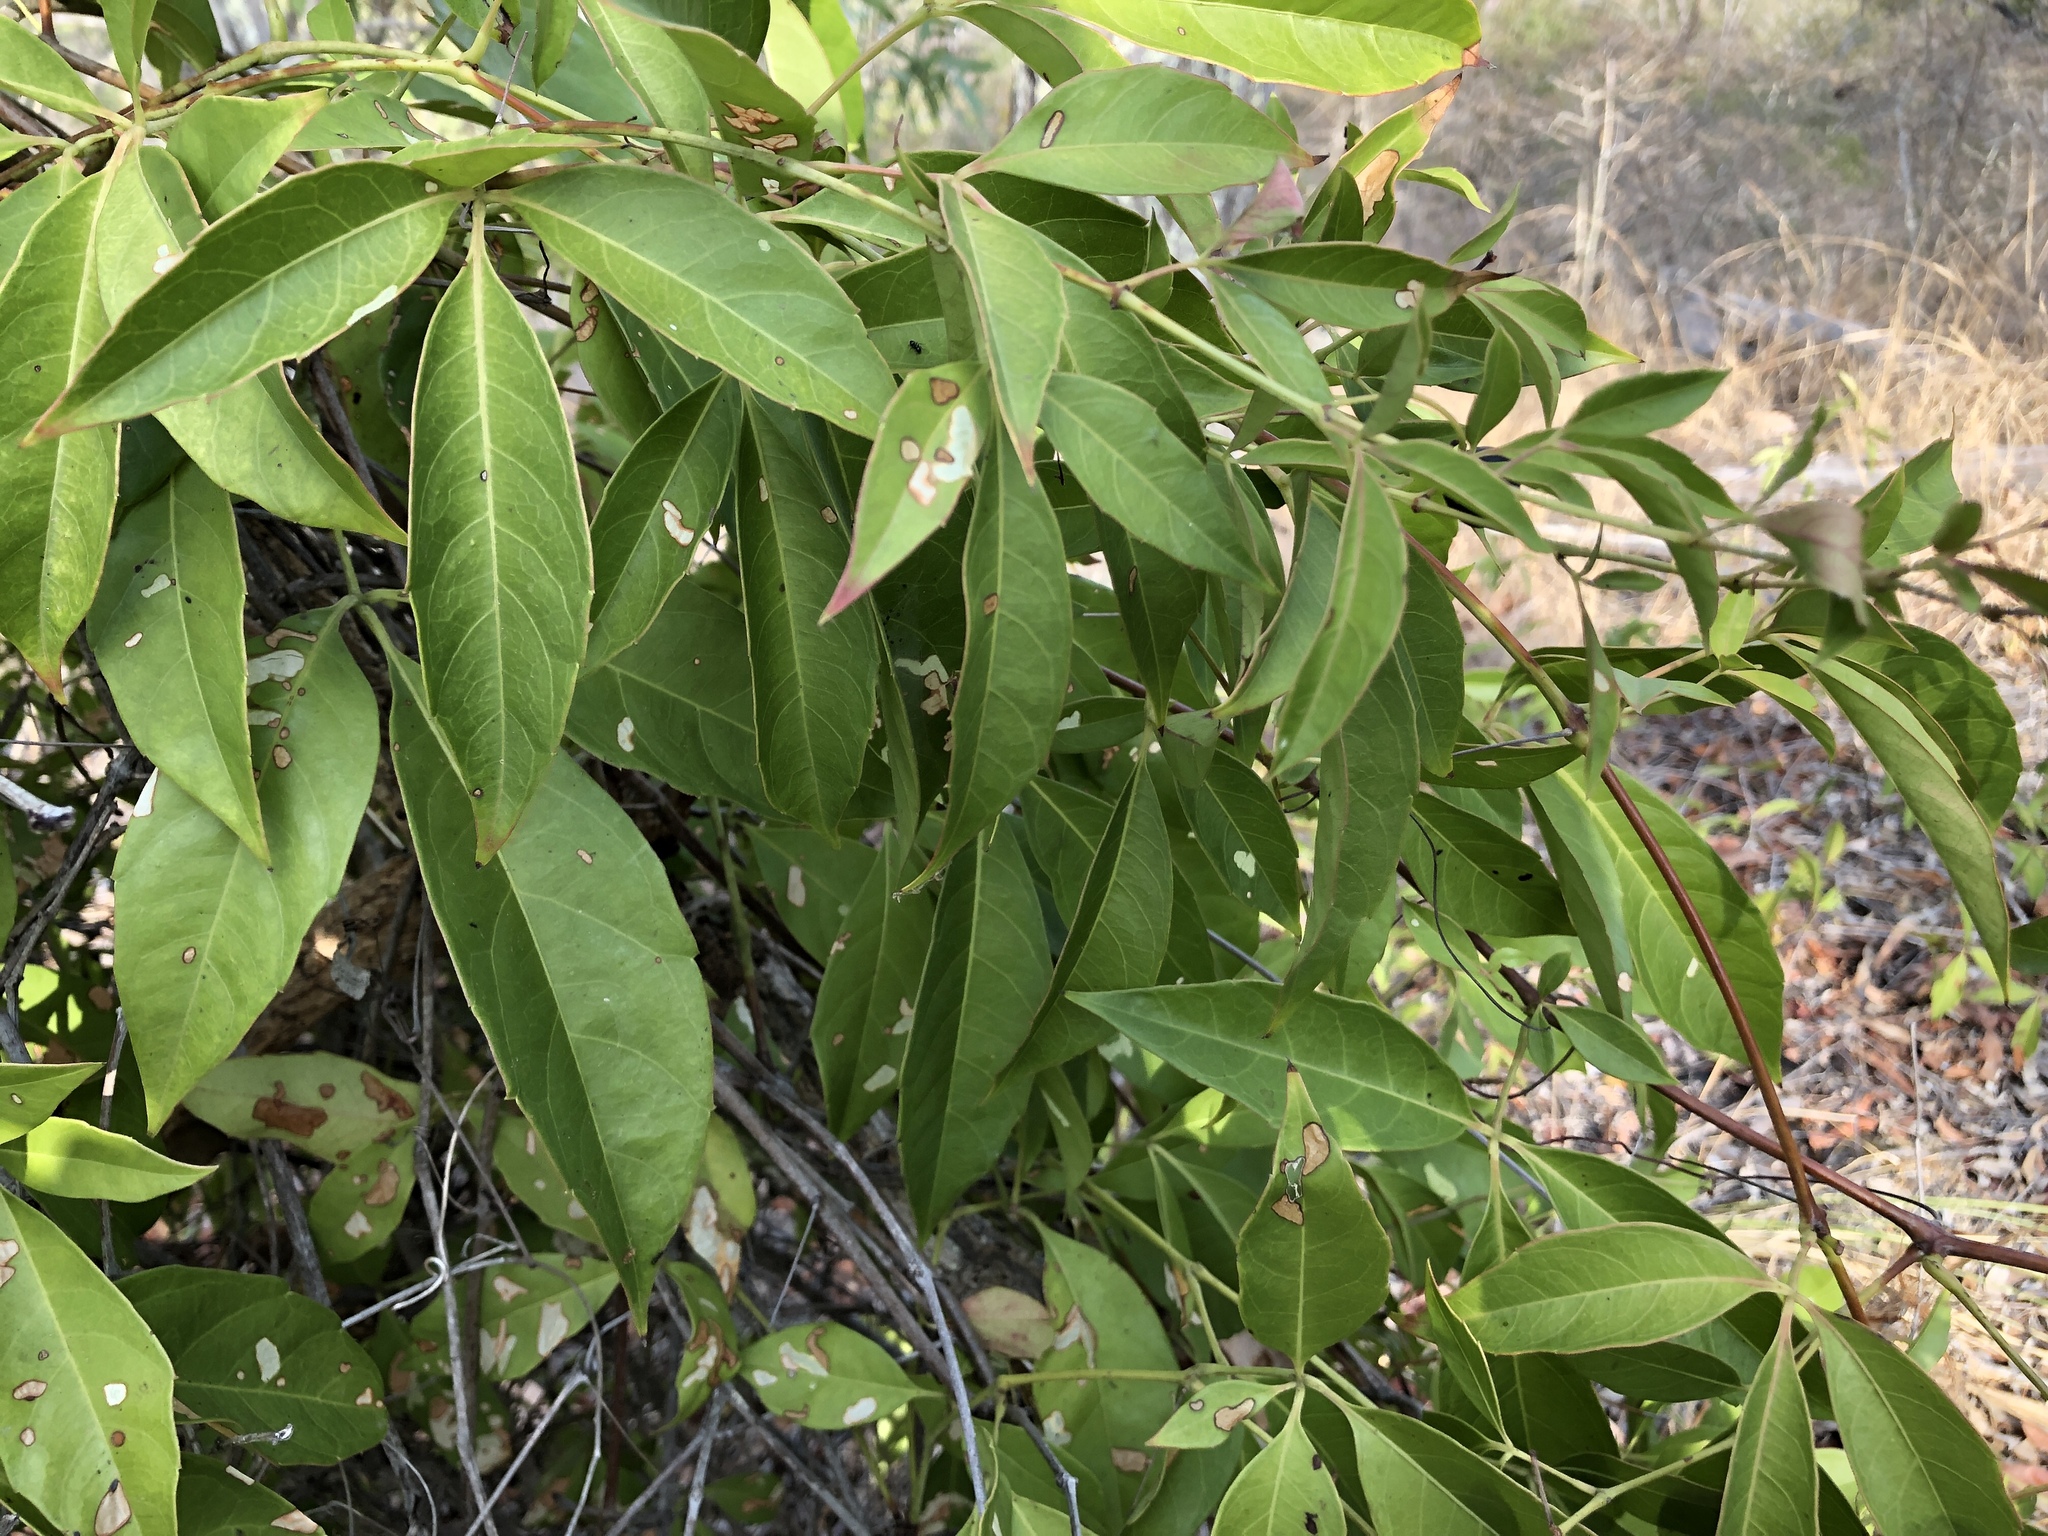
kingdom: Plantae
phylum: Tracheophyta
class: Magnoliopsida
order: Vitales
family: Vitaceae
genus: Clematicissus
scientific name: Clematicissus opaca
